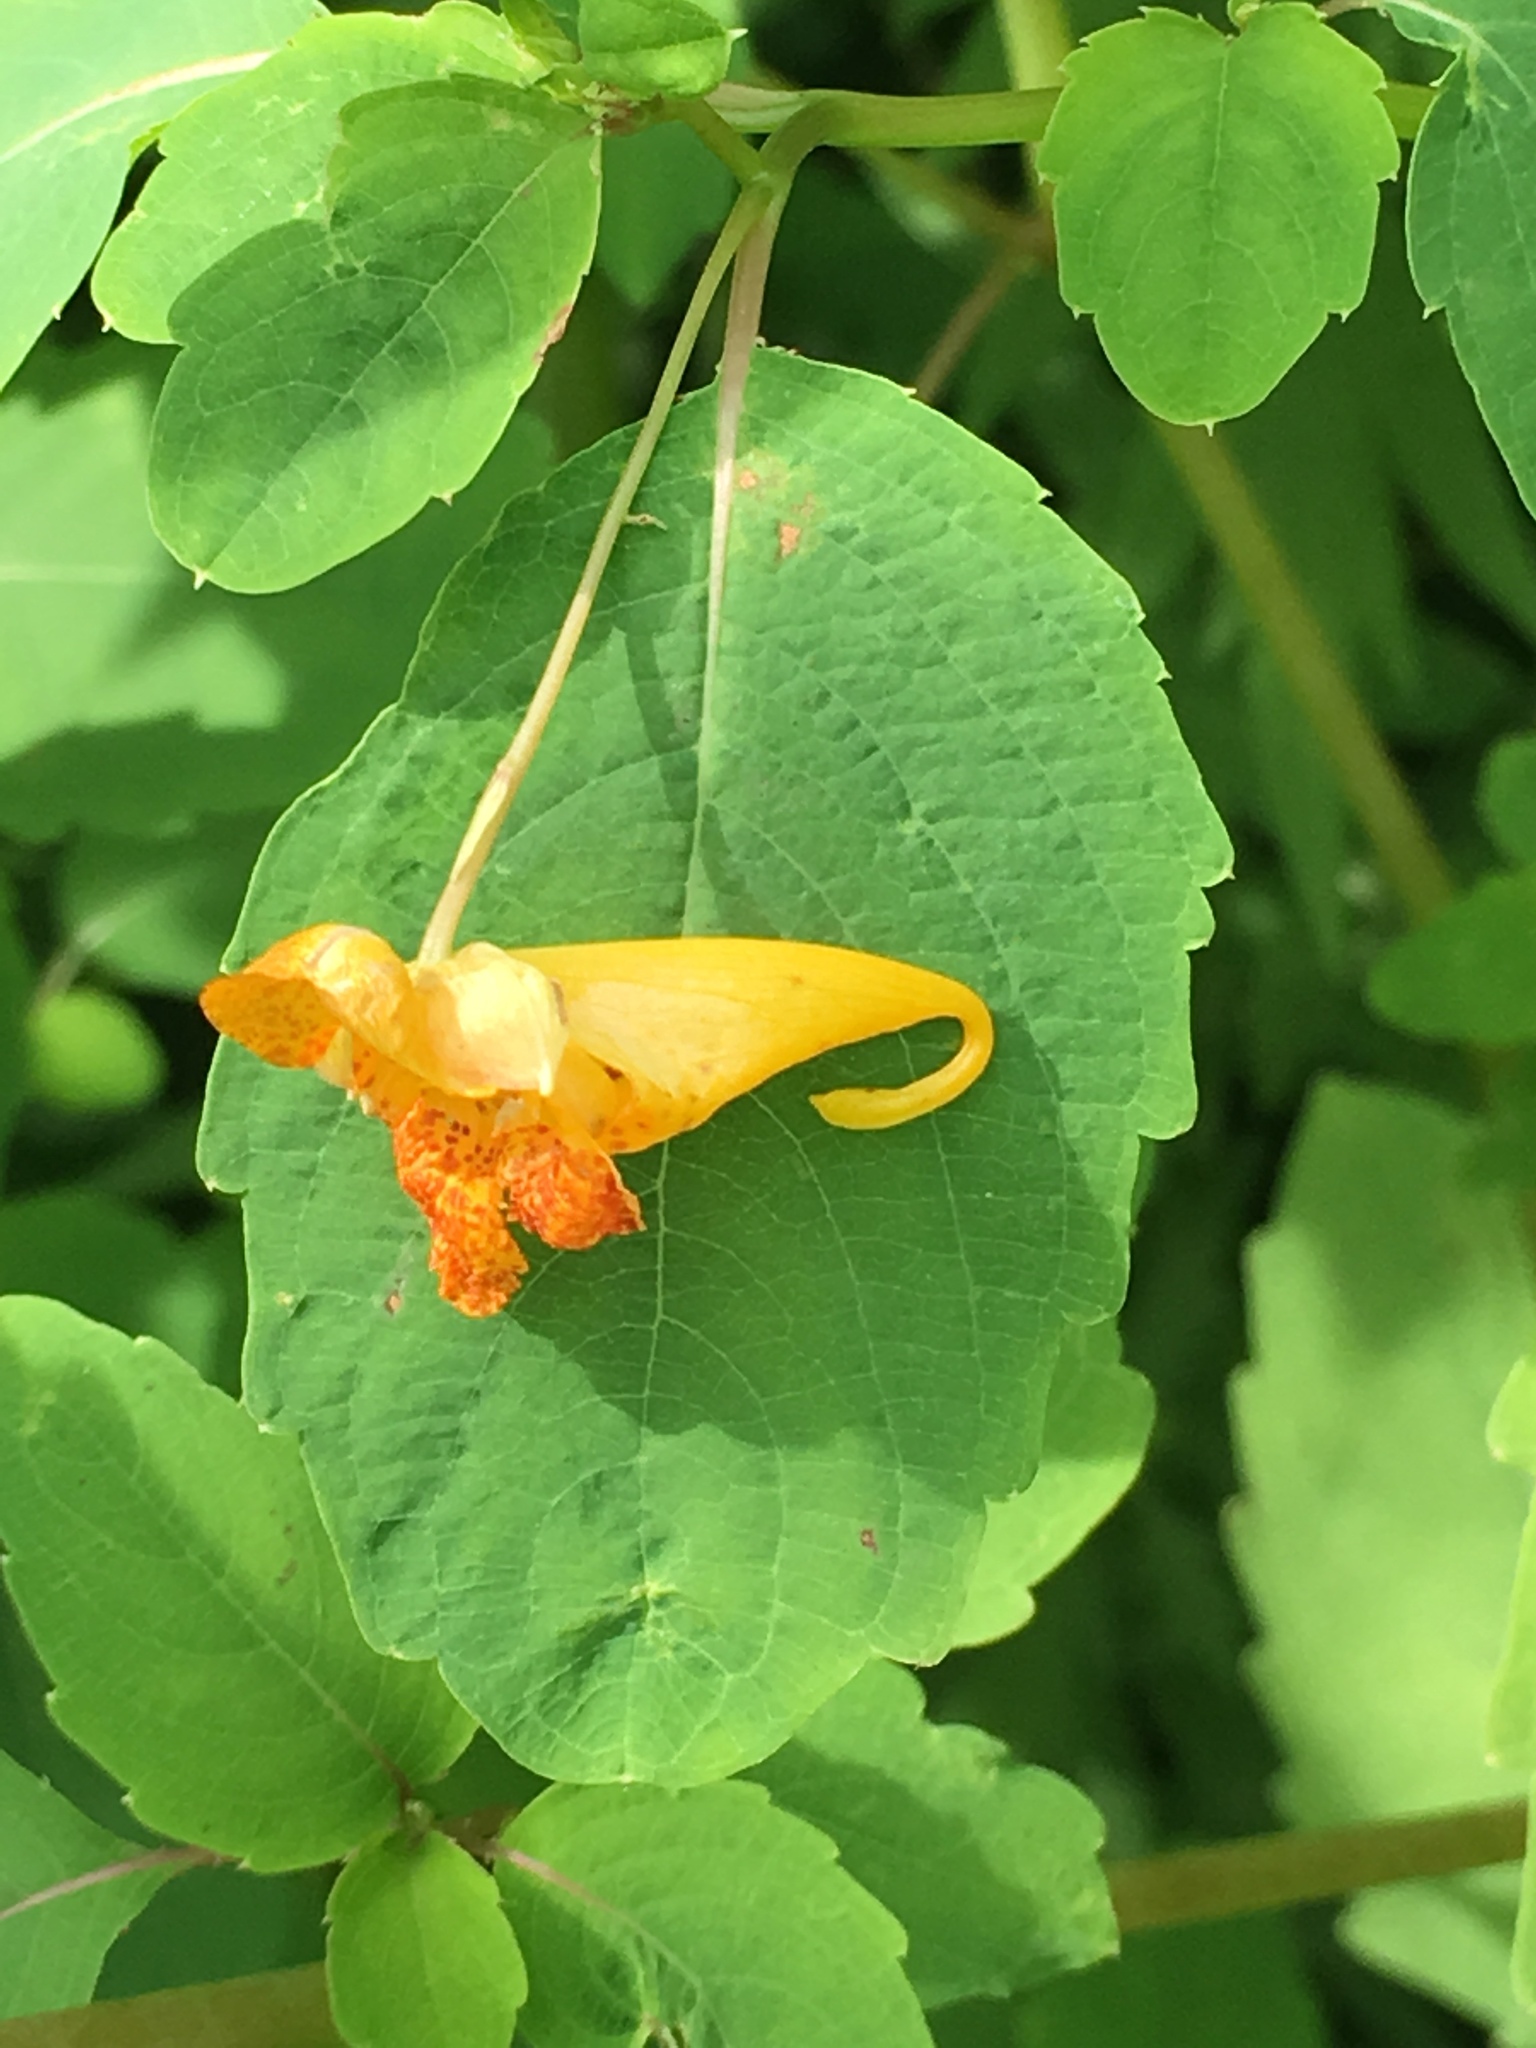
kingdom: Plantae
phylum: Tracheophyta
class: Magnoliopsida
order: Ericales
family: Balsaminaceae
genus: Impatiens
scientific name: Impatiens capensis
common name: Orange balsam
